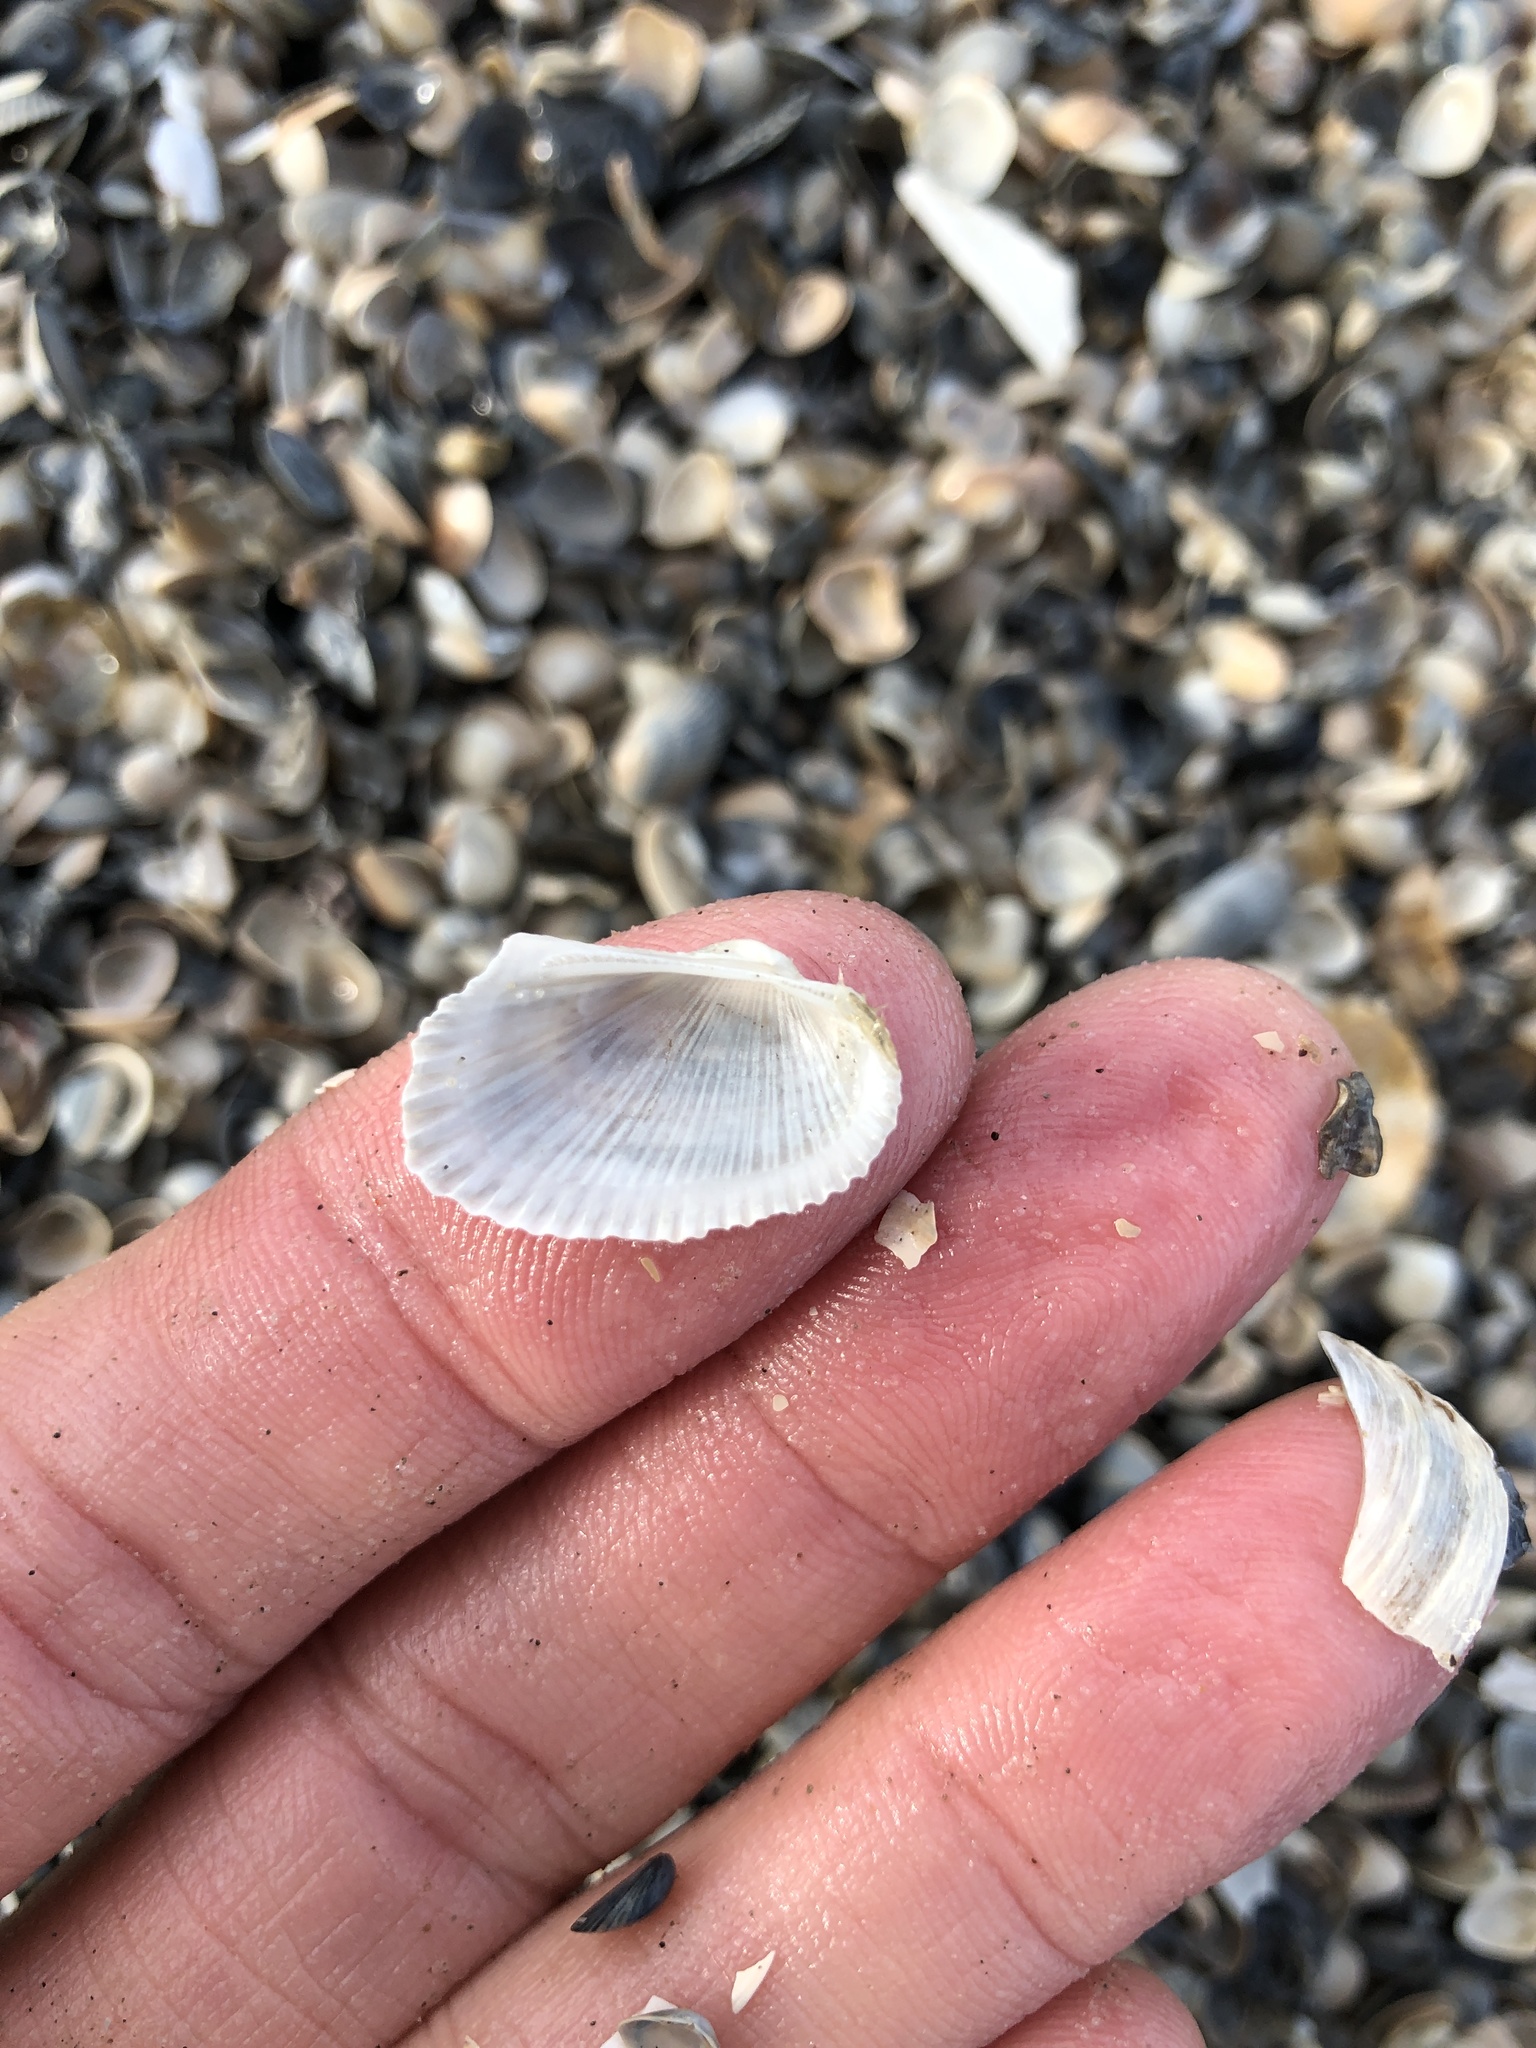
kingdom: Animalia
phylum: Mollusca
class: Bivalvia
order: Arcida
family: Arcidae
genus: Anadara
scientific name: Anadara transversa
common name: Transverse ark
